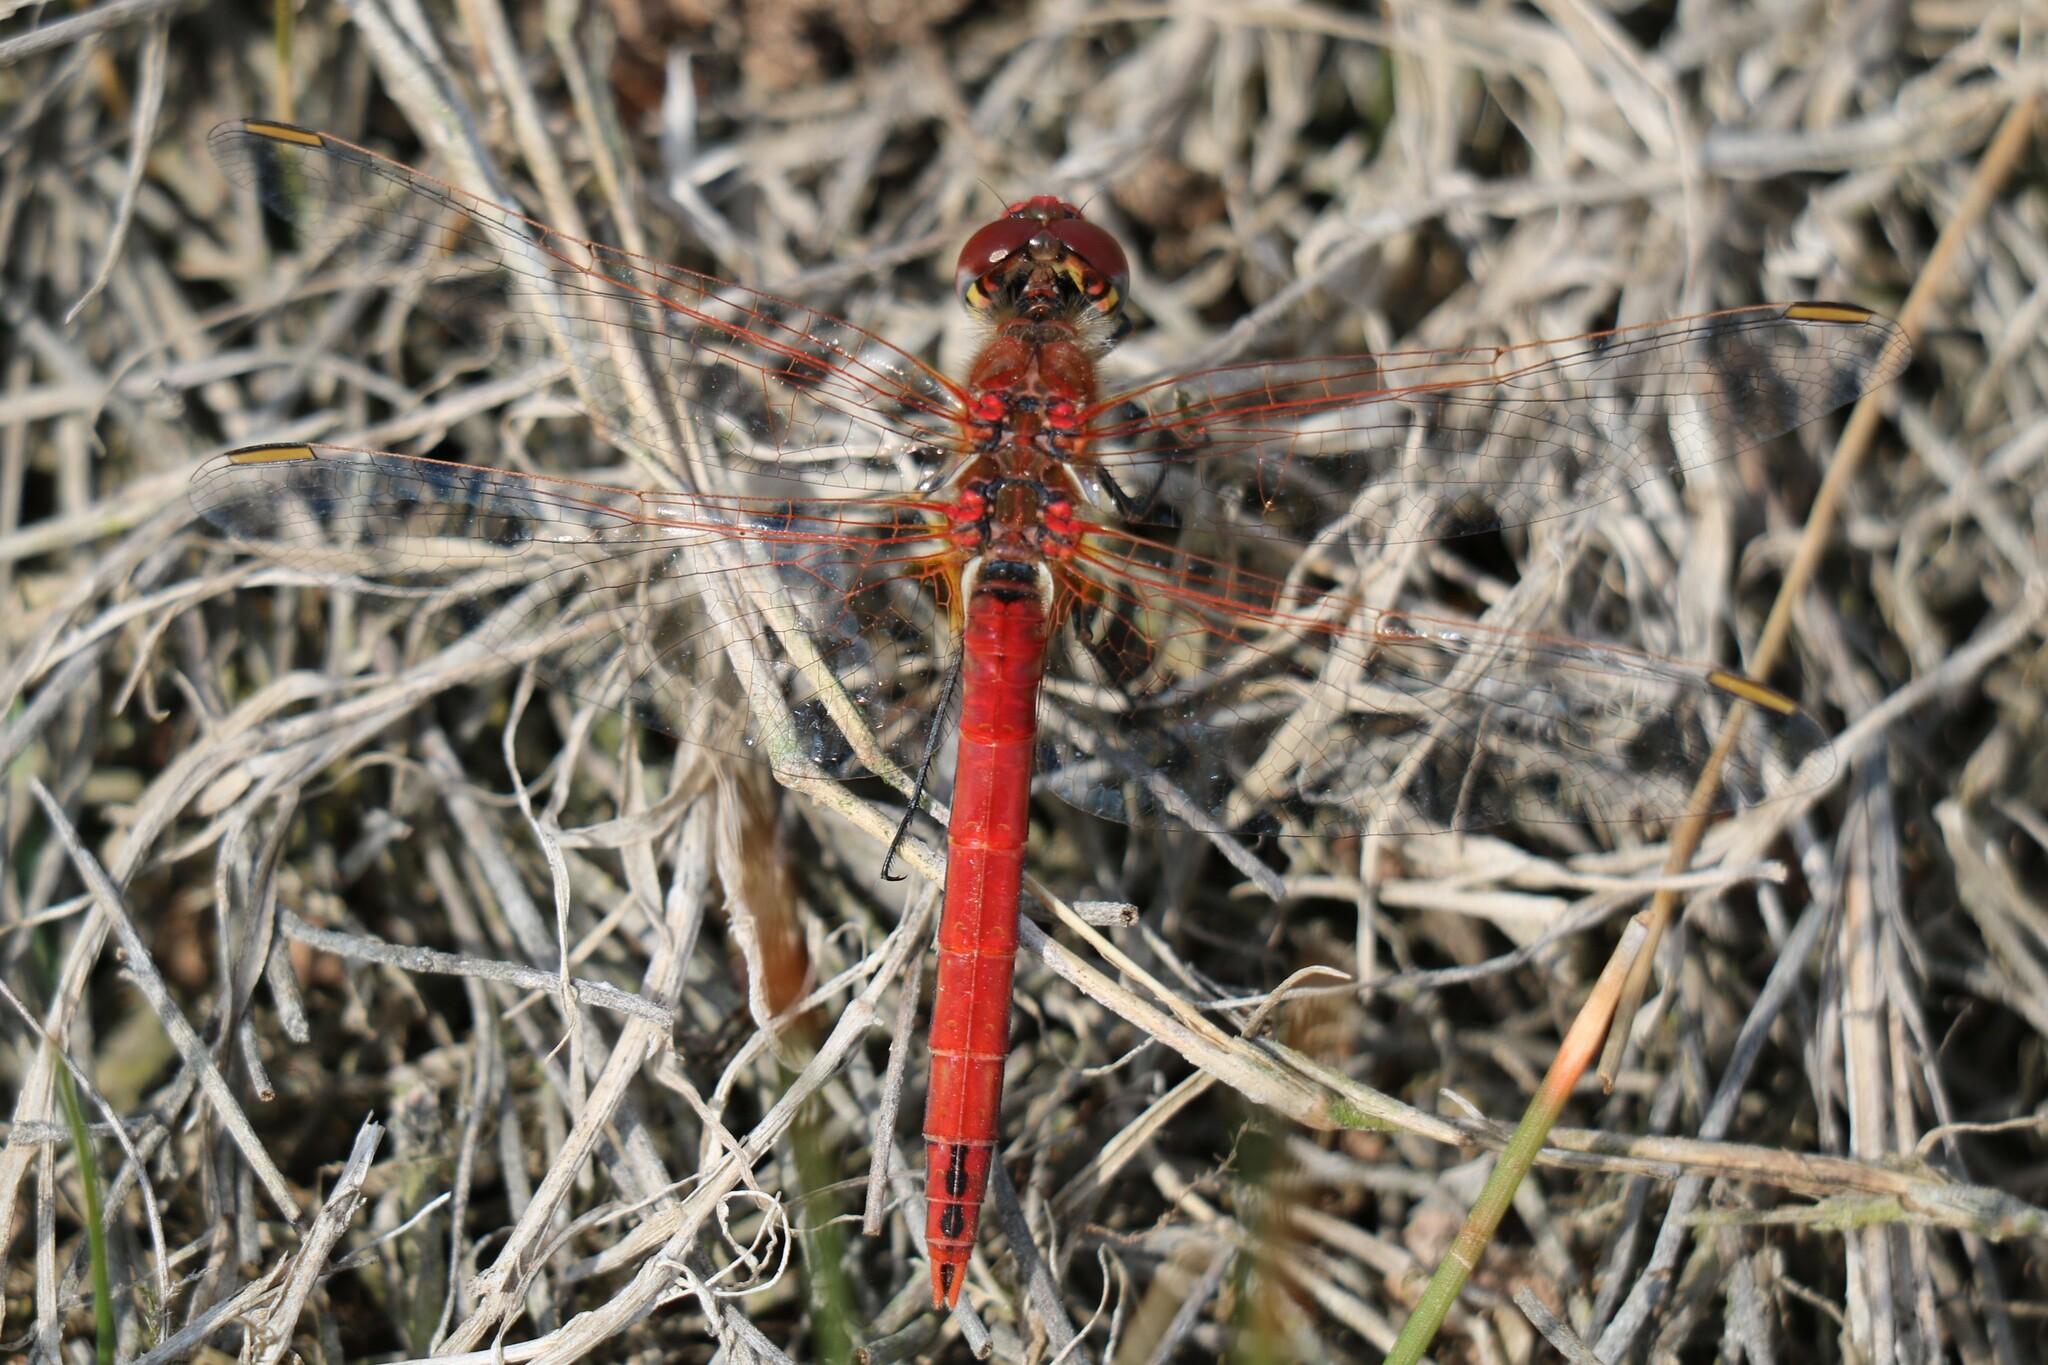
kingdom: Animalia
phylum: Arthropoda
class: Insecta
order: Odonata
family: Libellulidae
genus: Sympetrum
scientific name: Sympetrum fonscolombii
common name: Red-veined darter
